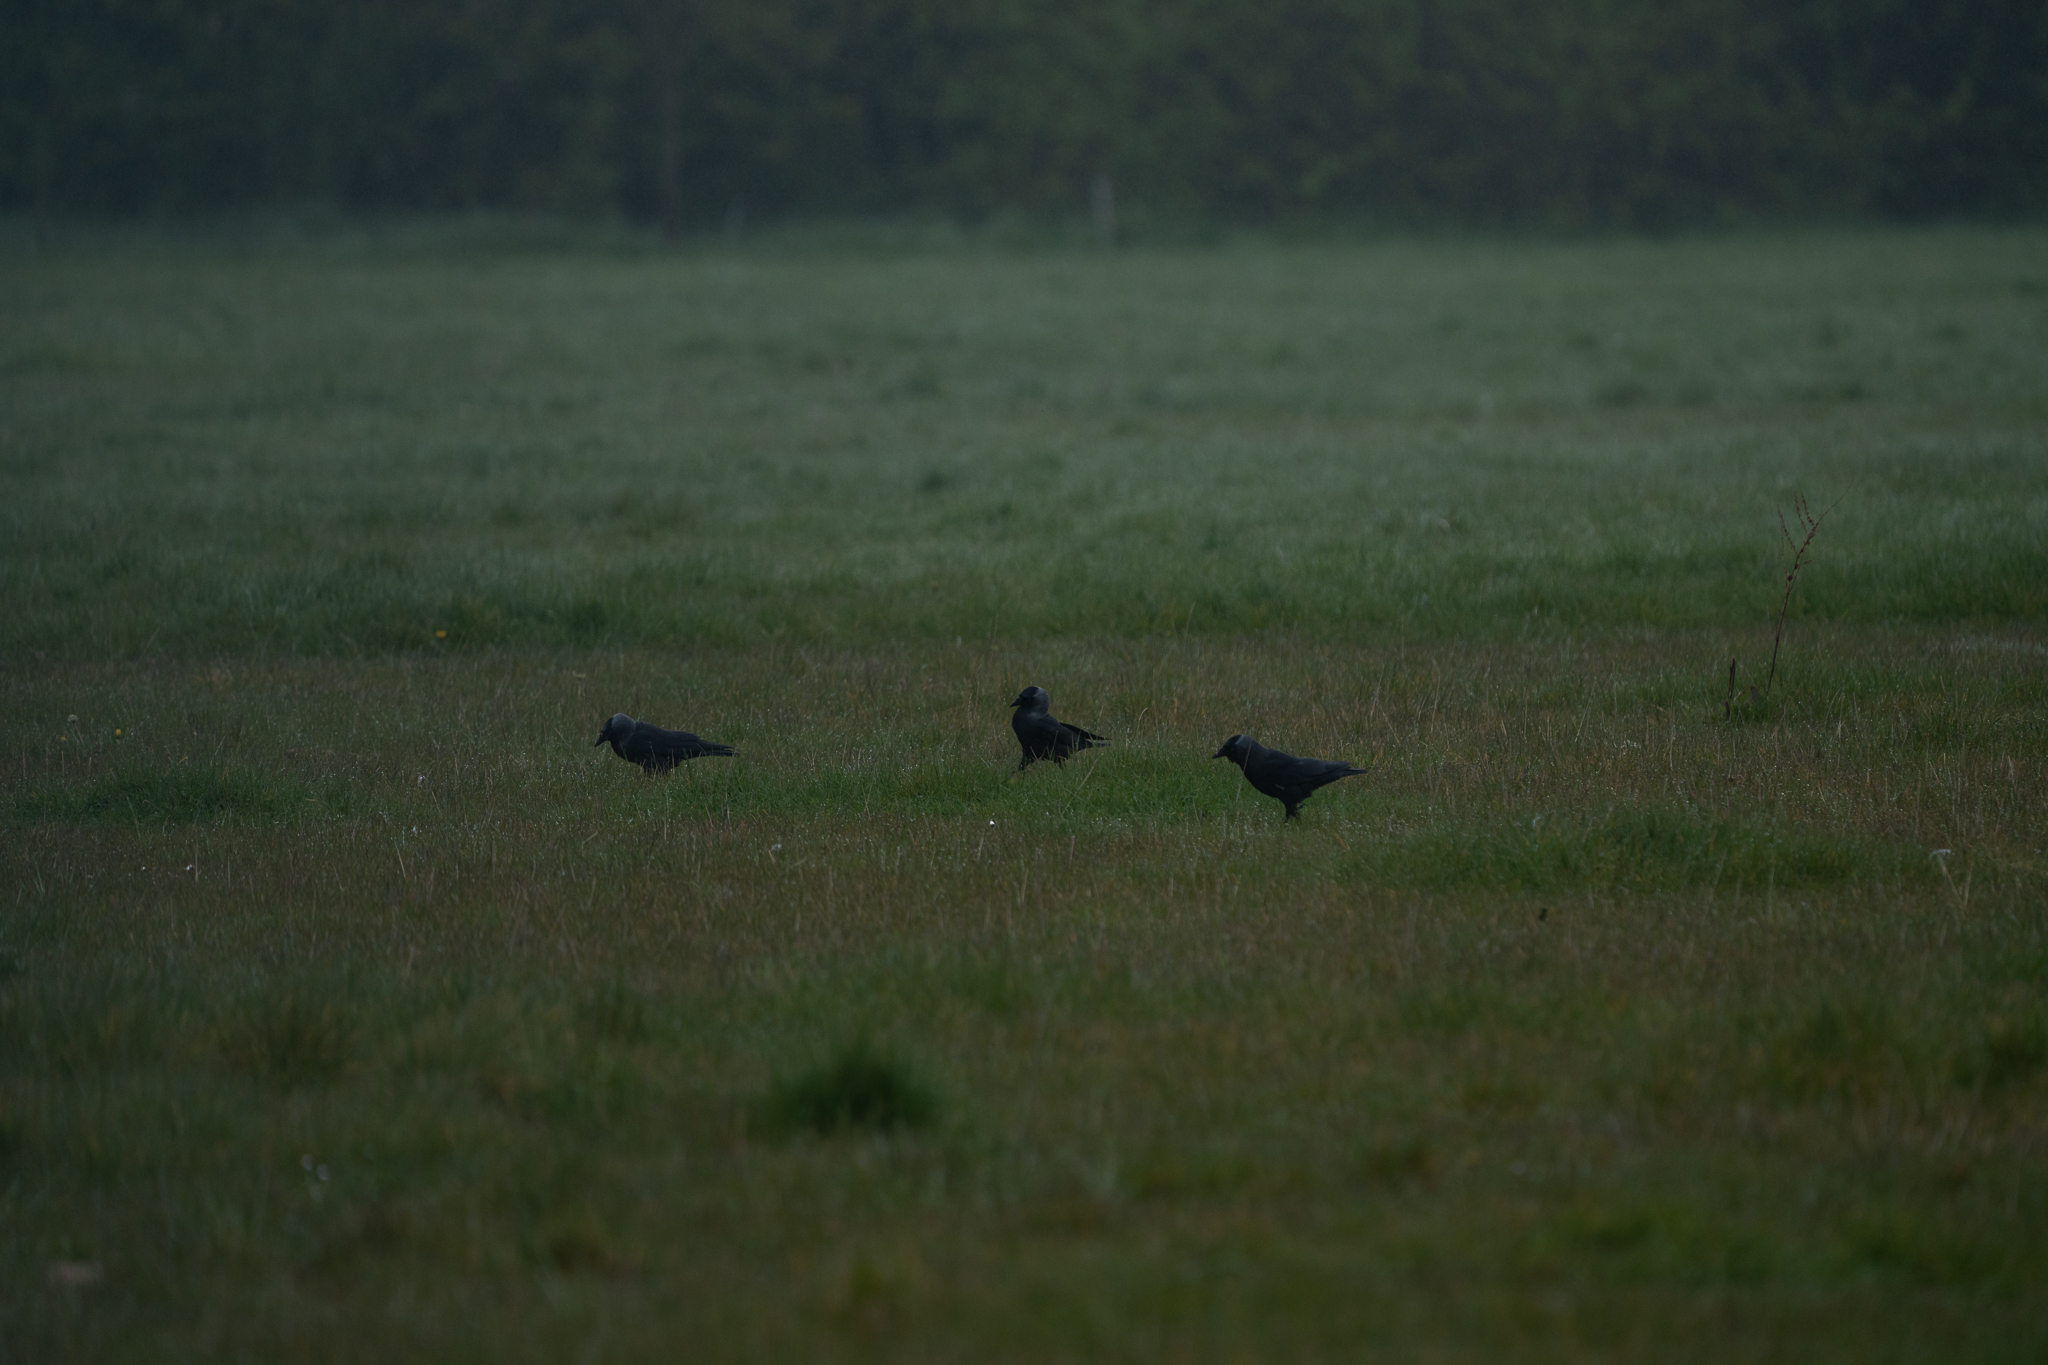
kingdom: Animalia
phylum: Chordata
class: Aves
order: Passeriformes
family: Corvidae
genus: Coloeus
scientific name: Coloeus monedula
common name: Western jackdaw
